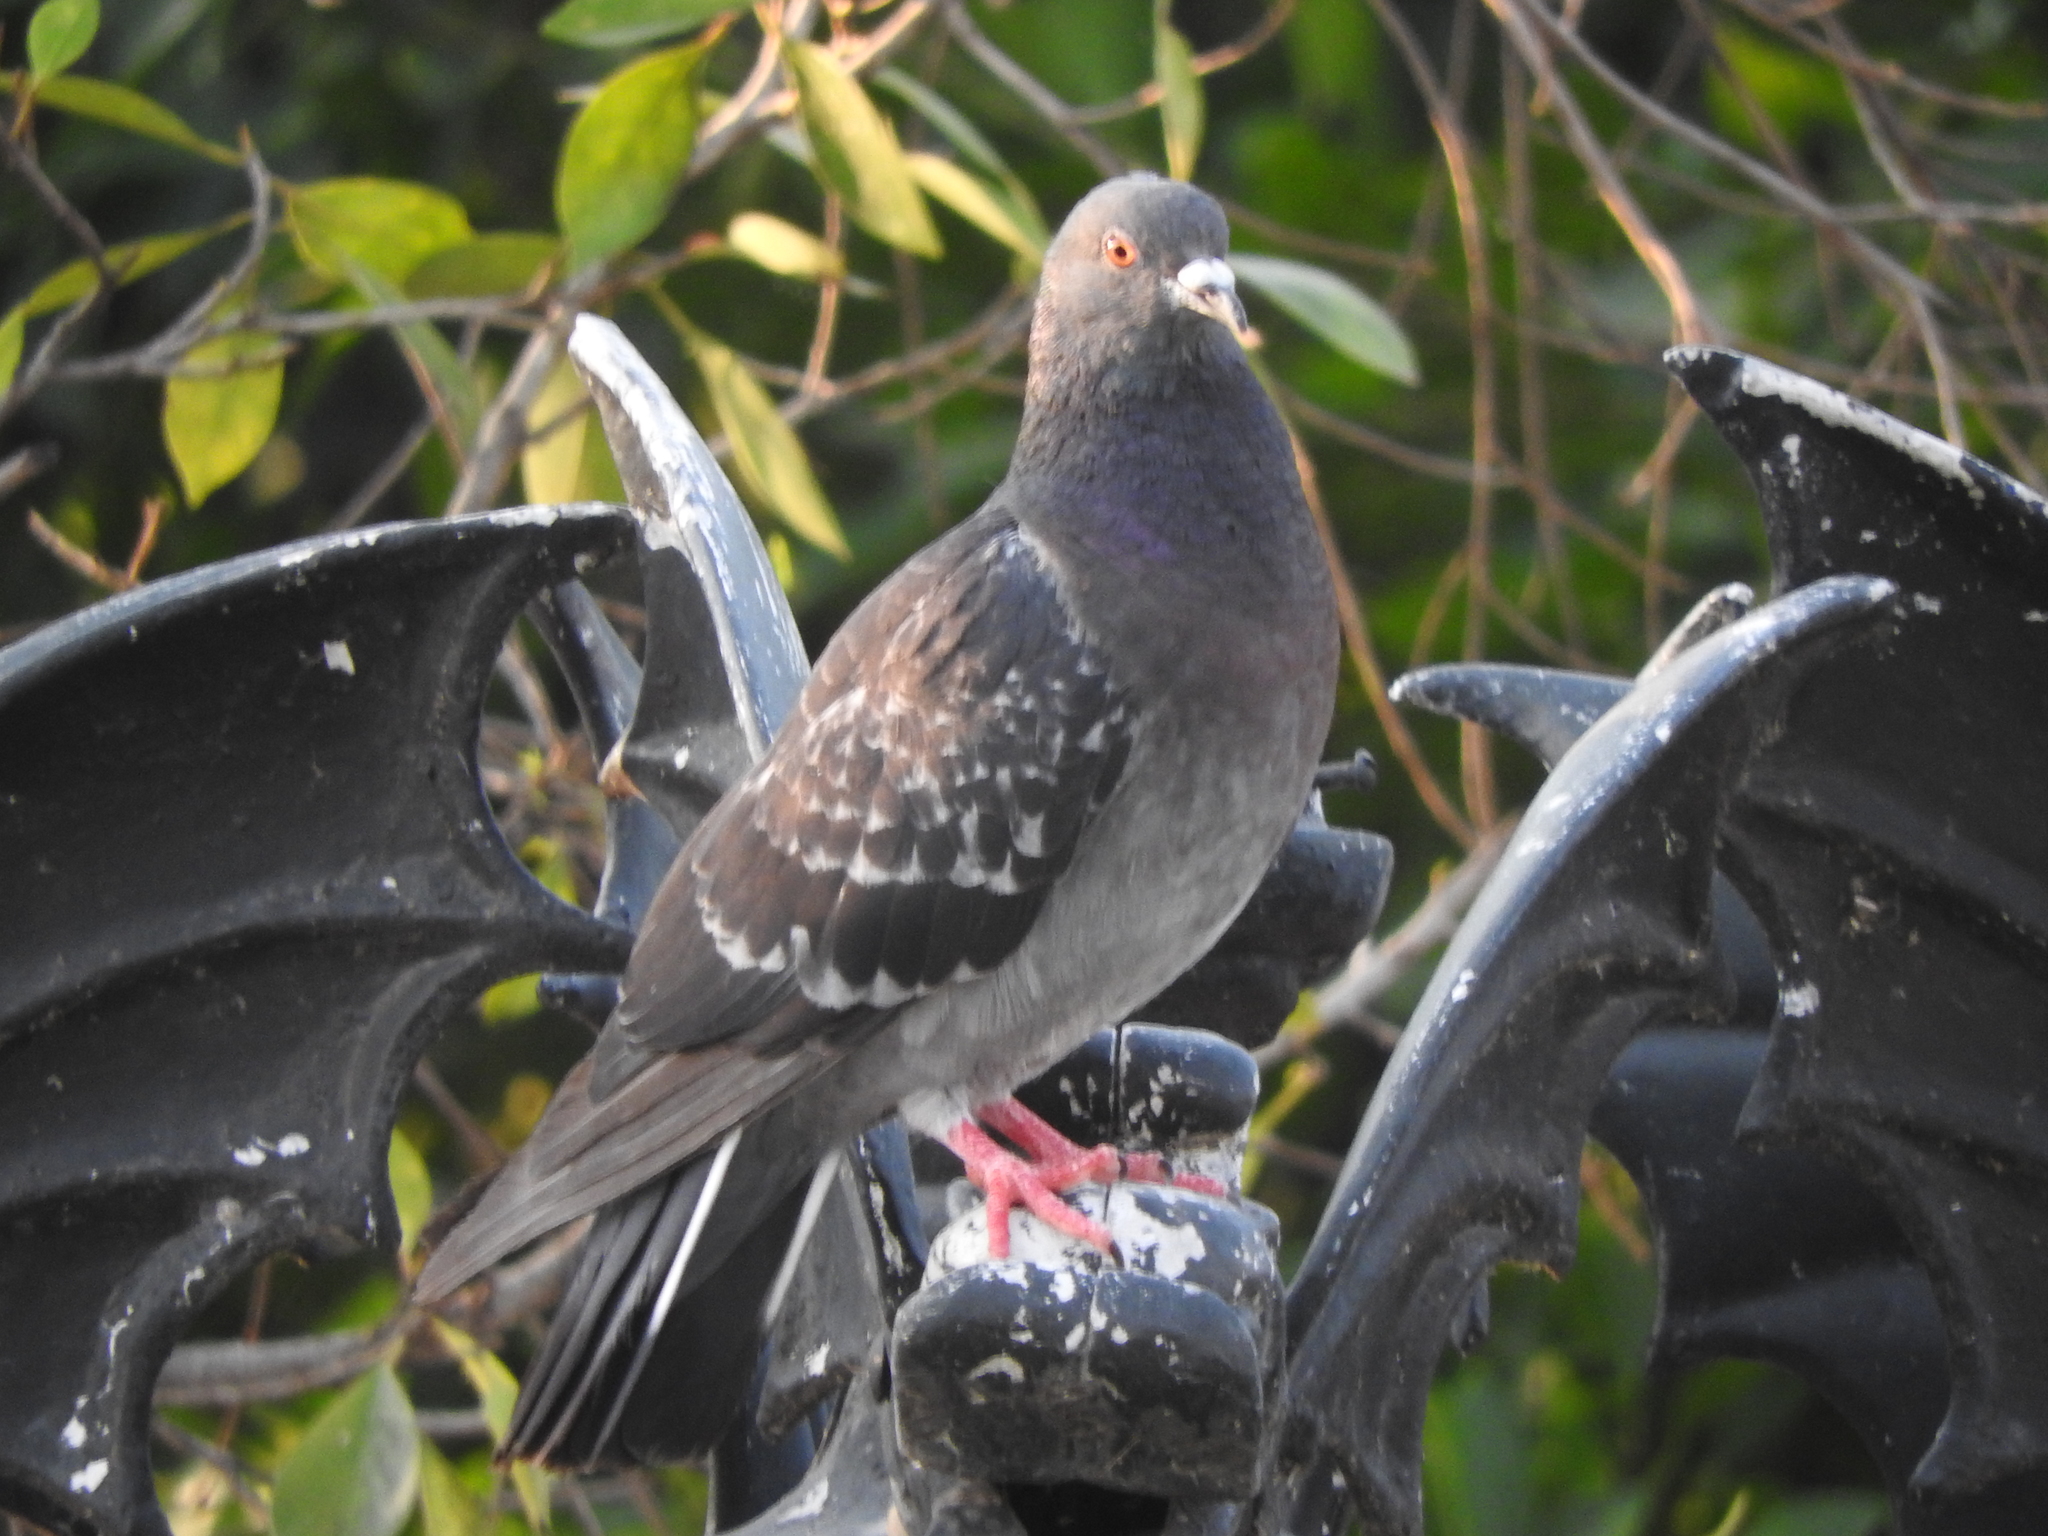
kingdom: Animalia
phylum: Chordata
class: Aves
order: Columbiformes
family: Columbidae
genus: Columba
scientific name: Columba livia
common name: Rock pigeon
